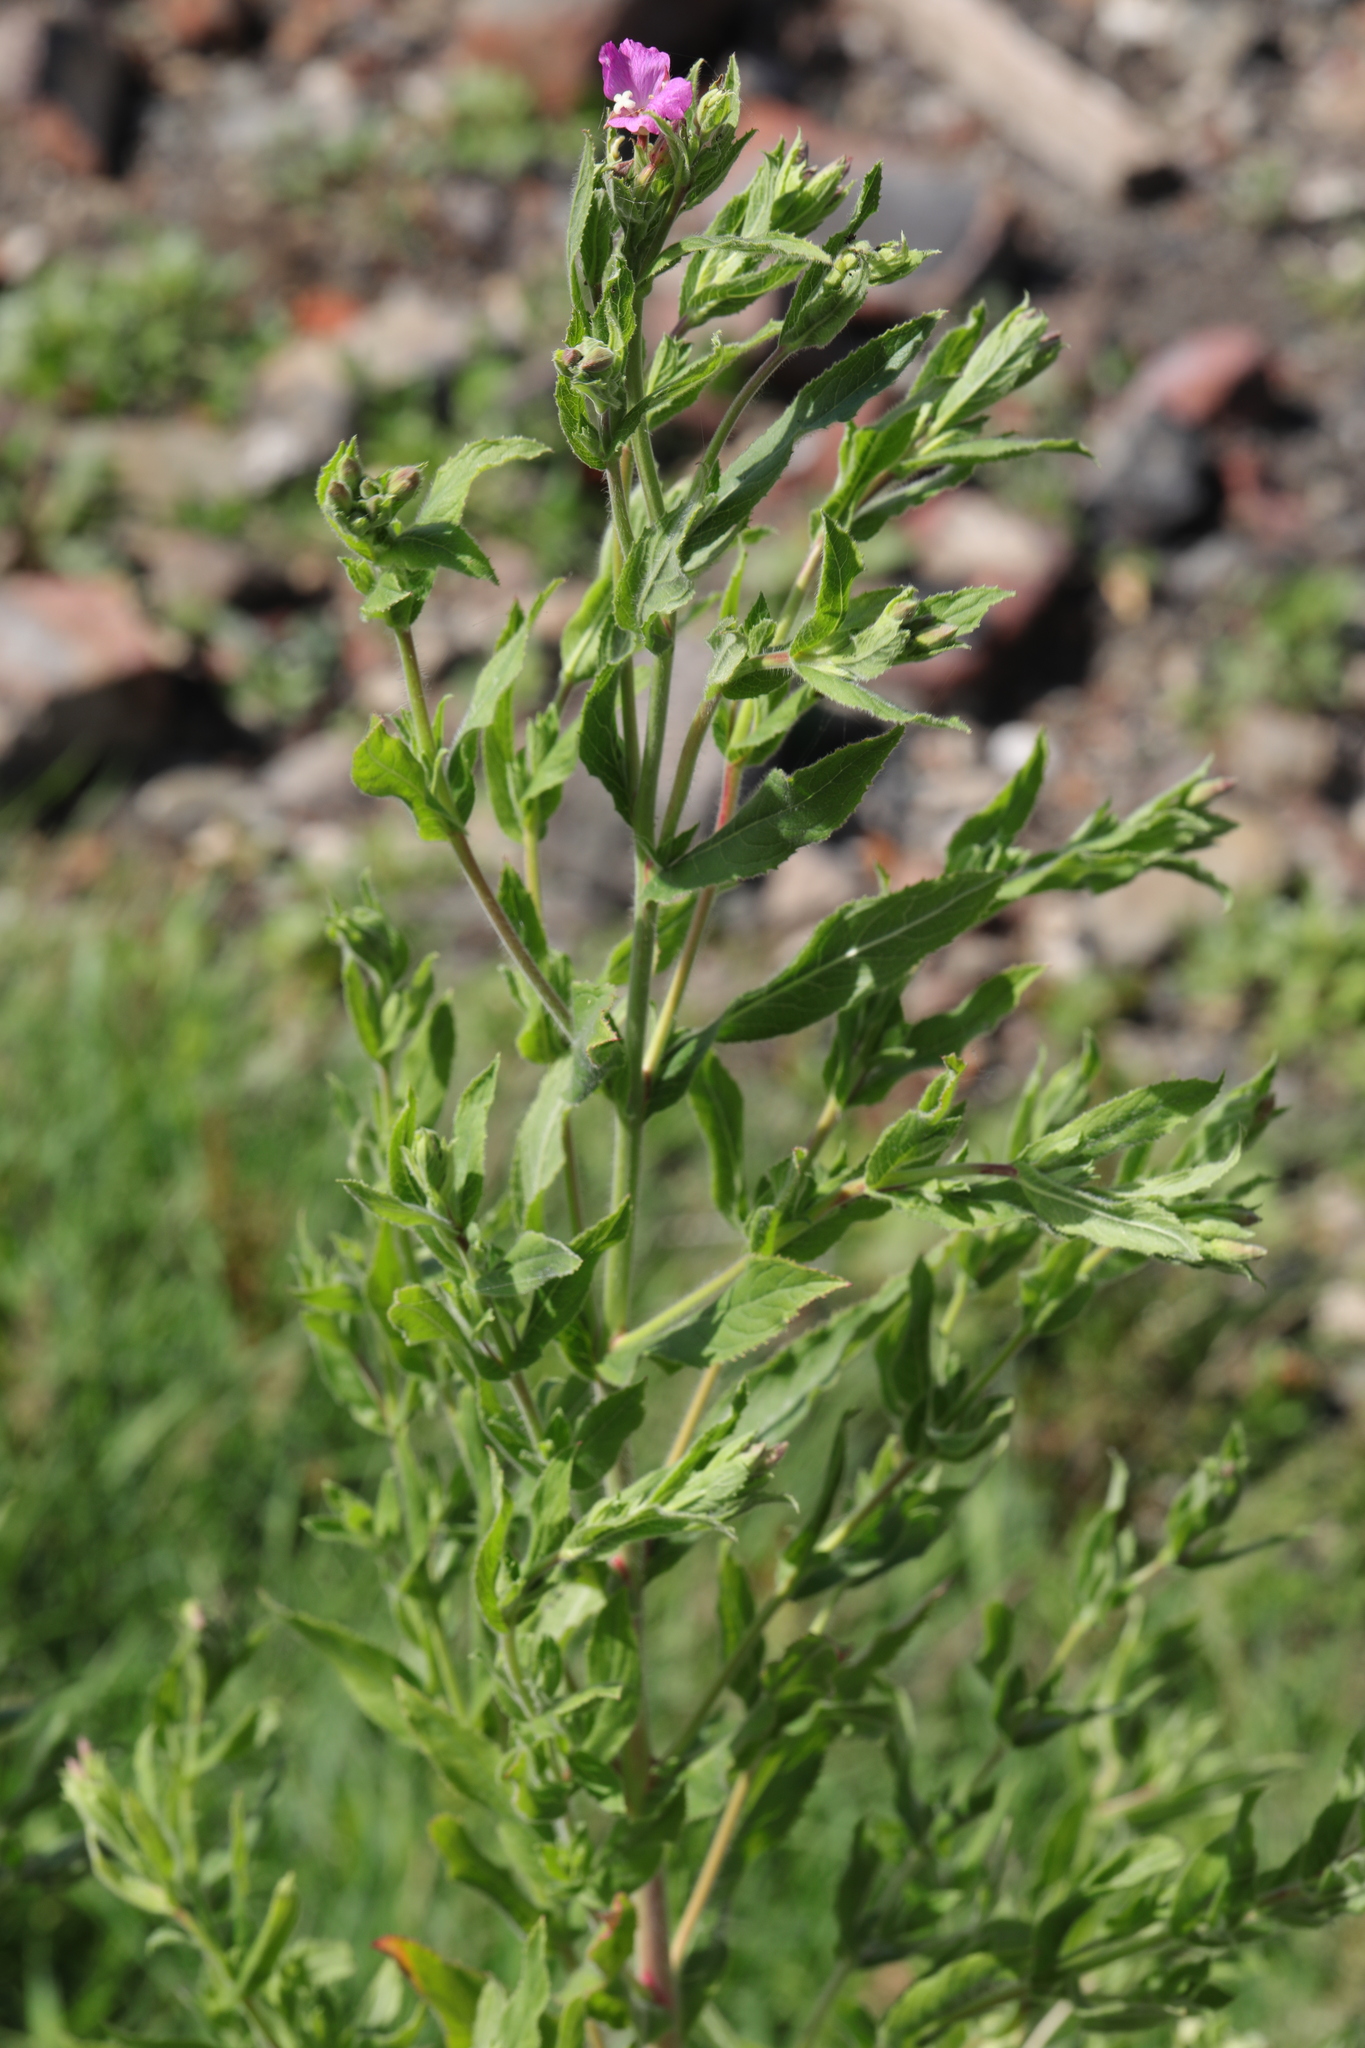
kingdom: Plantae
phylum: Tracheophyta
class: Magnoliopsida
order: Myrtales
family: Onagraceae
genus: Epilobium
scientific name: Epilobium hirsutum
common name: Great willowherb
